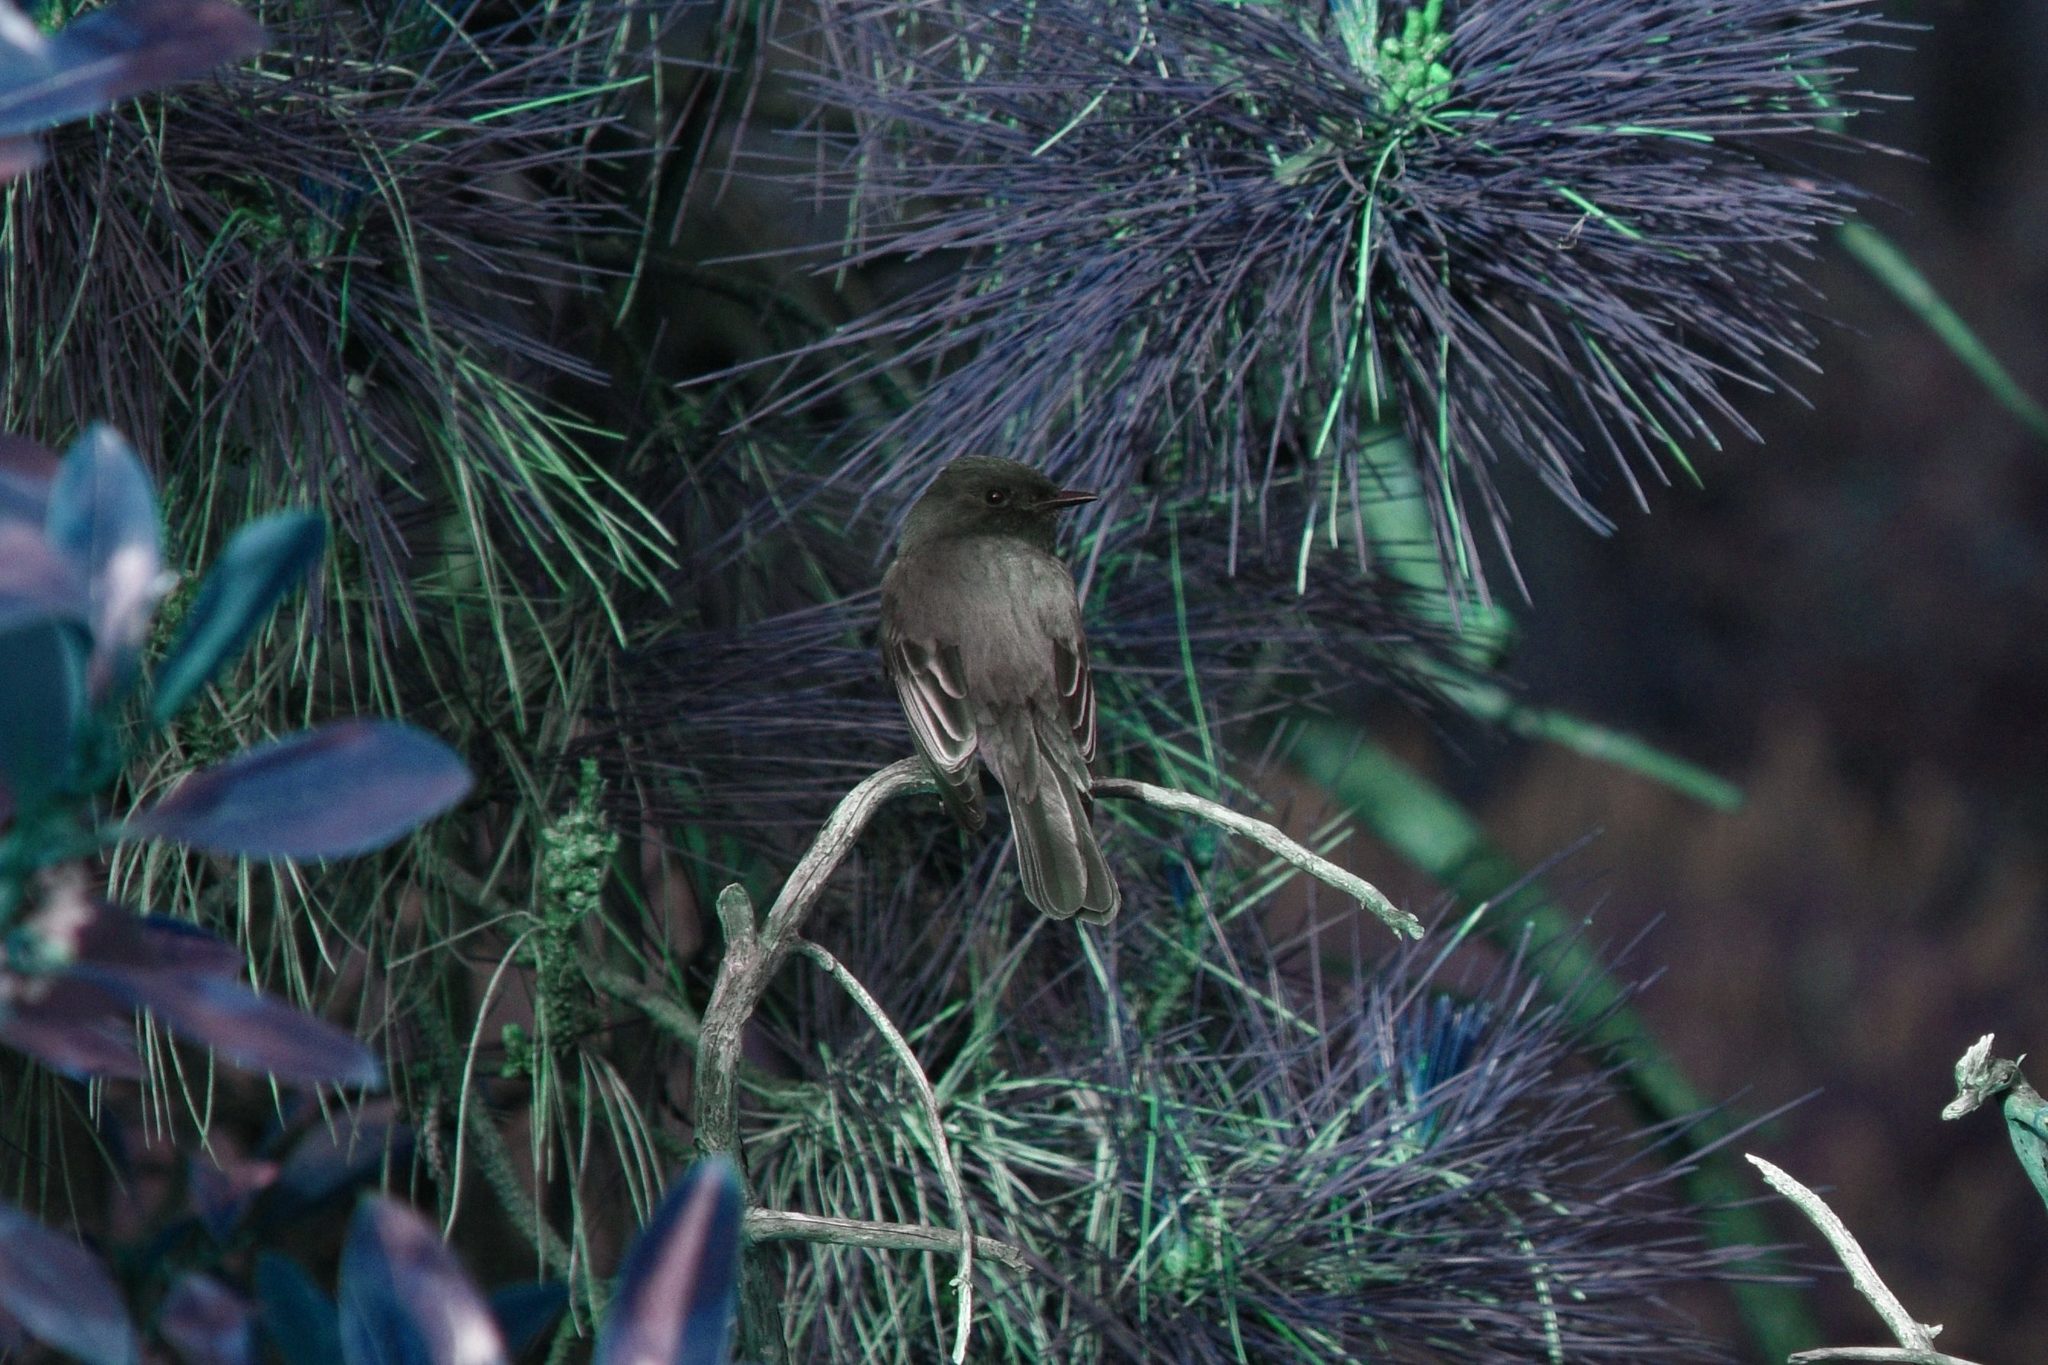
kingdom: Animalia
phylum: Chordata
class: Aves
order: Passeriformes
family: Tyrannidae
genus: Sayornis
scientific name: Sayornis nigricans
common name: Black phoebe
